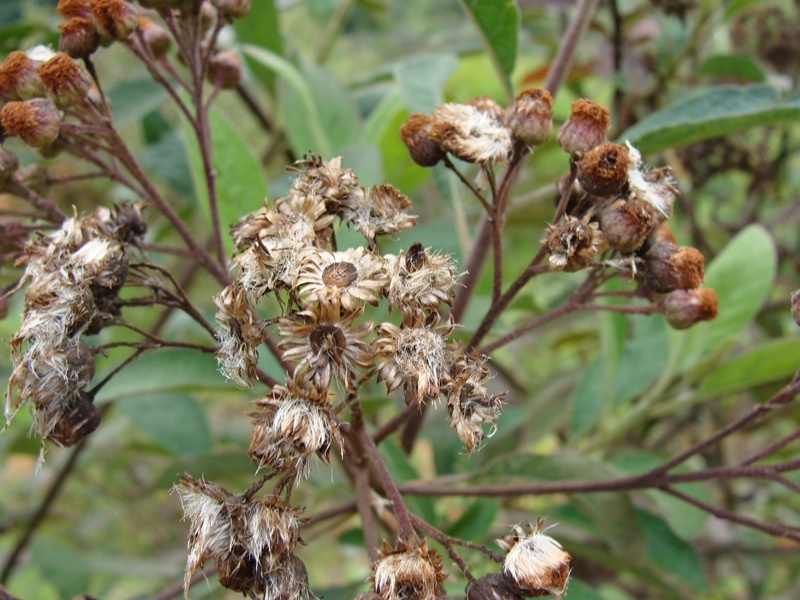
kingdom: Plantae
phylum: Tracheophyta
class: Magnoliopsida
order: Asterales
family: Asteraceae
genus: Pluchea
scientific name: Pluchea carolinensis
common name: Marsh fleabane
